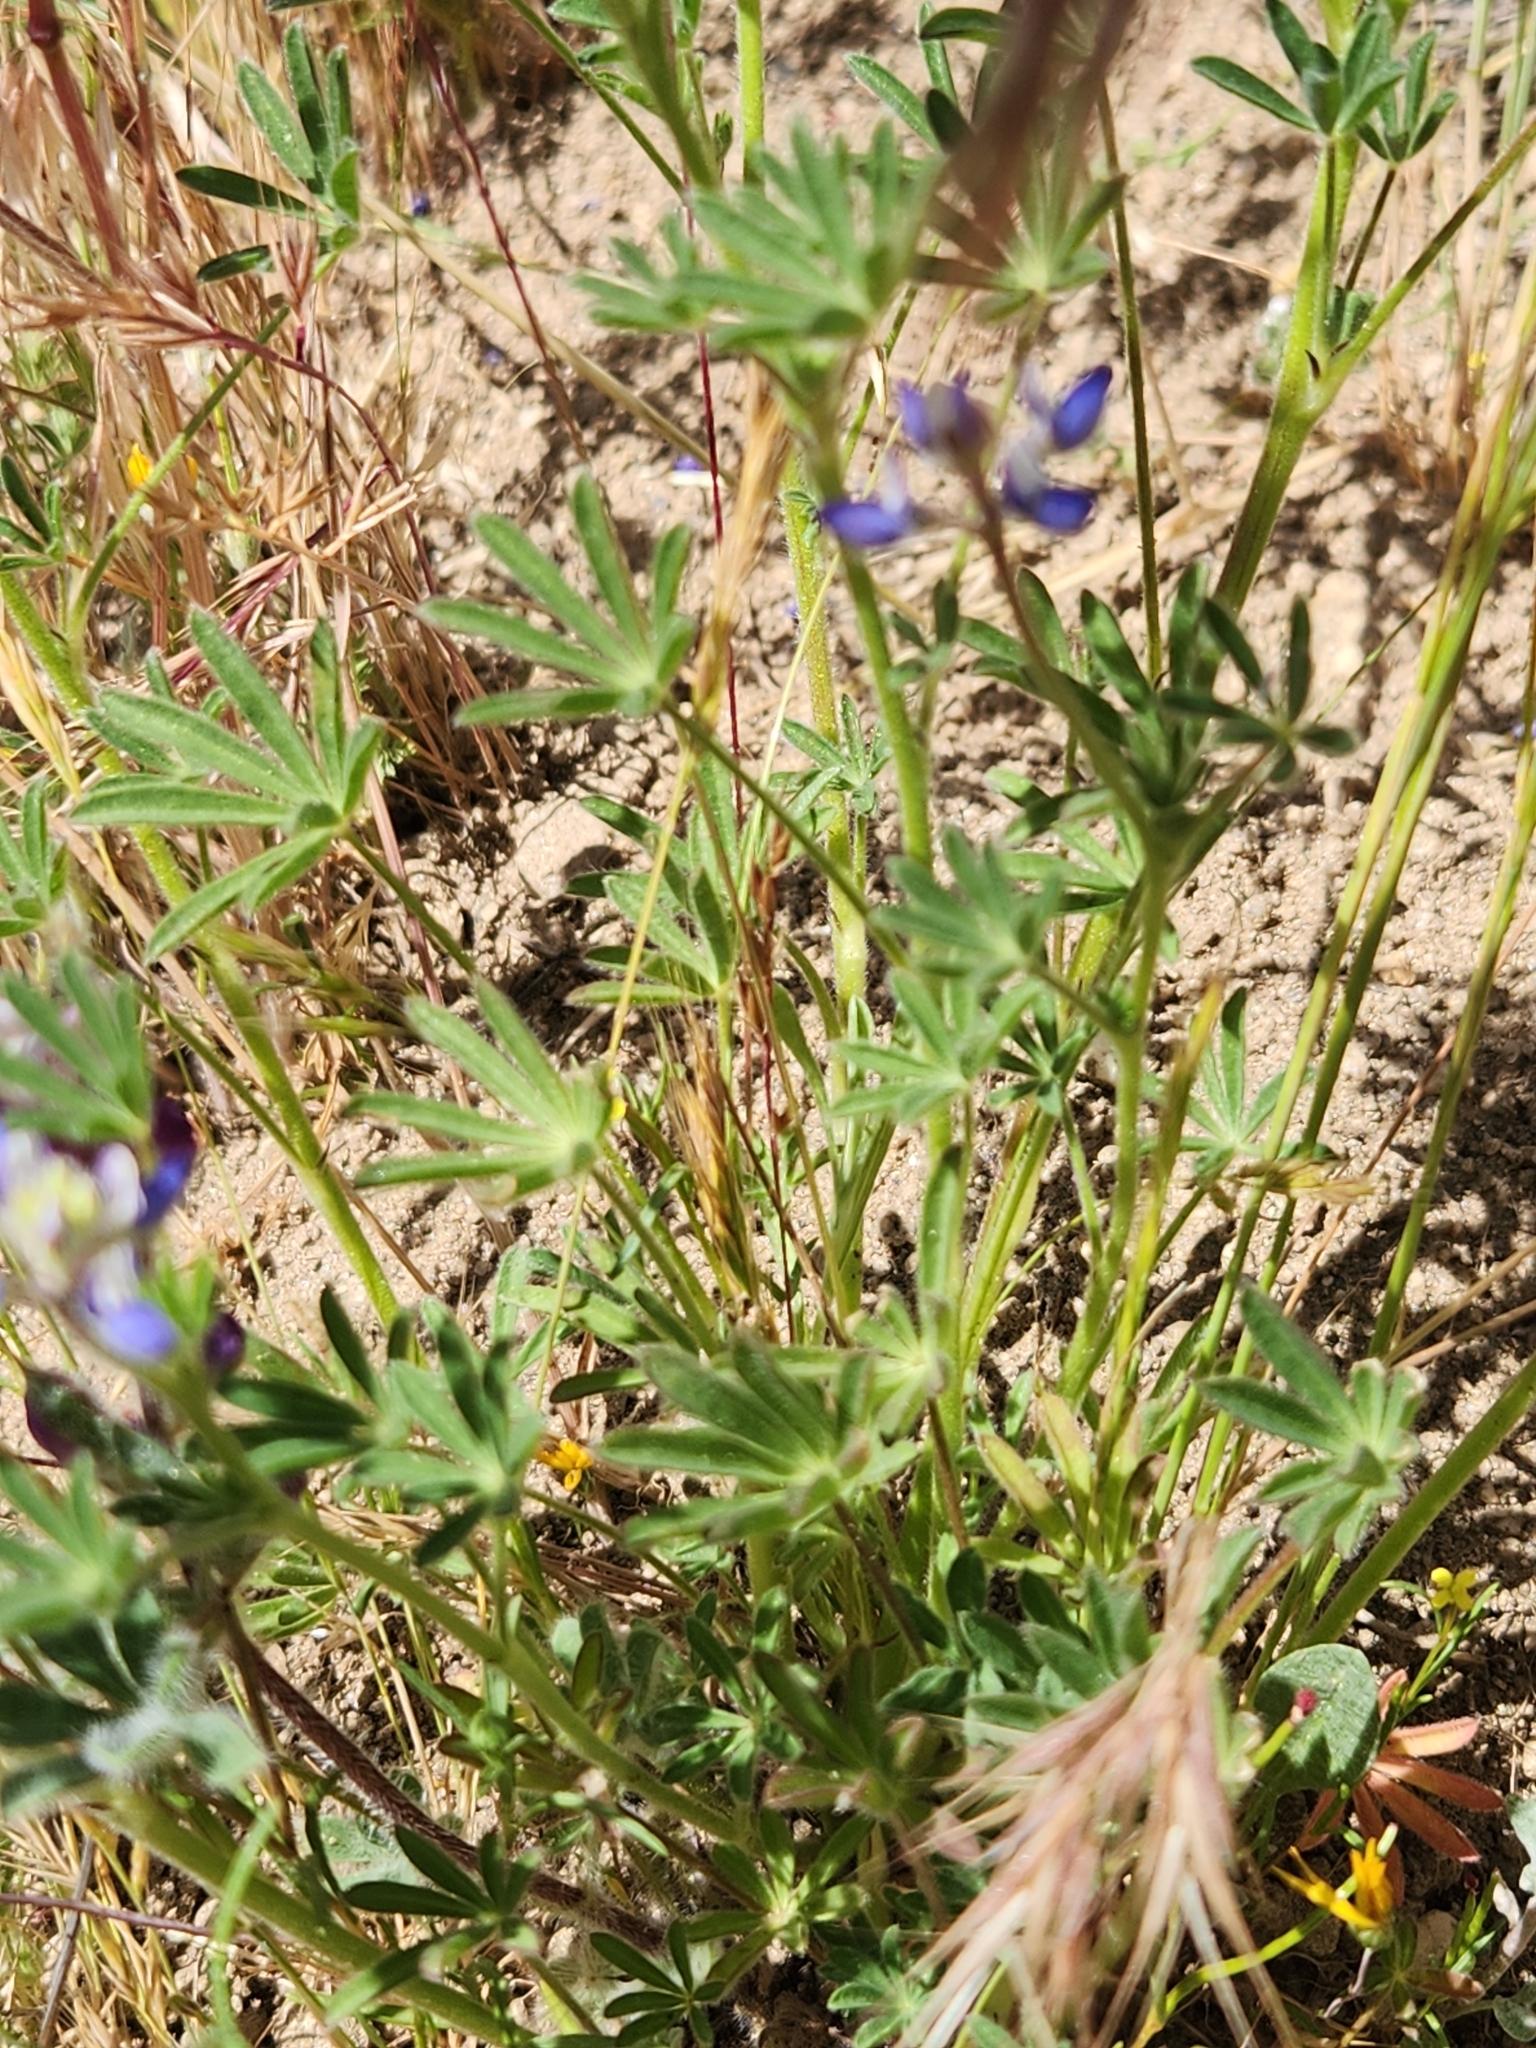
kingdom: Plantae
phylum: Tracheophyta
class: Magnoliopsida
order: Fabales
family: Fabaceae
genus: Lupinus
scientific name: Lupinus bicolor
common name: Miniature lupine
